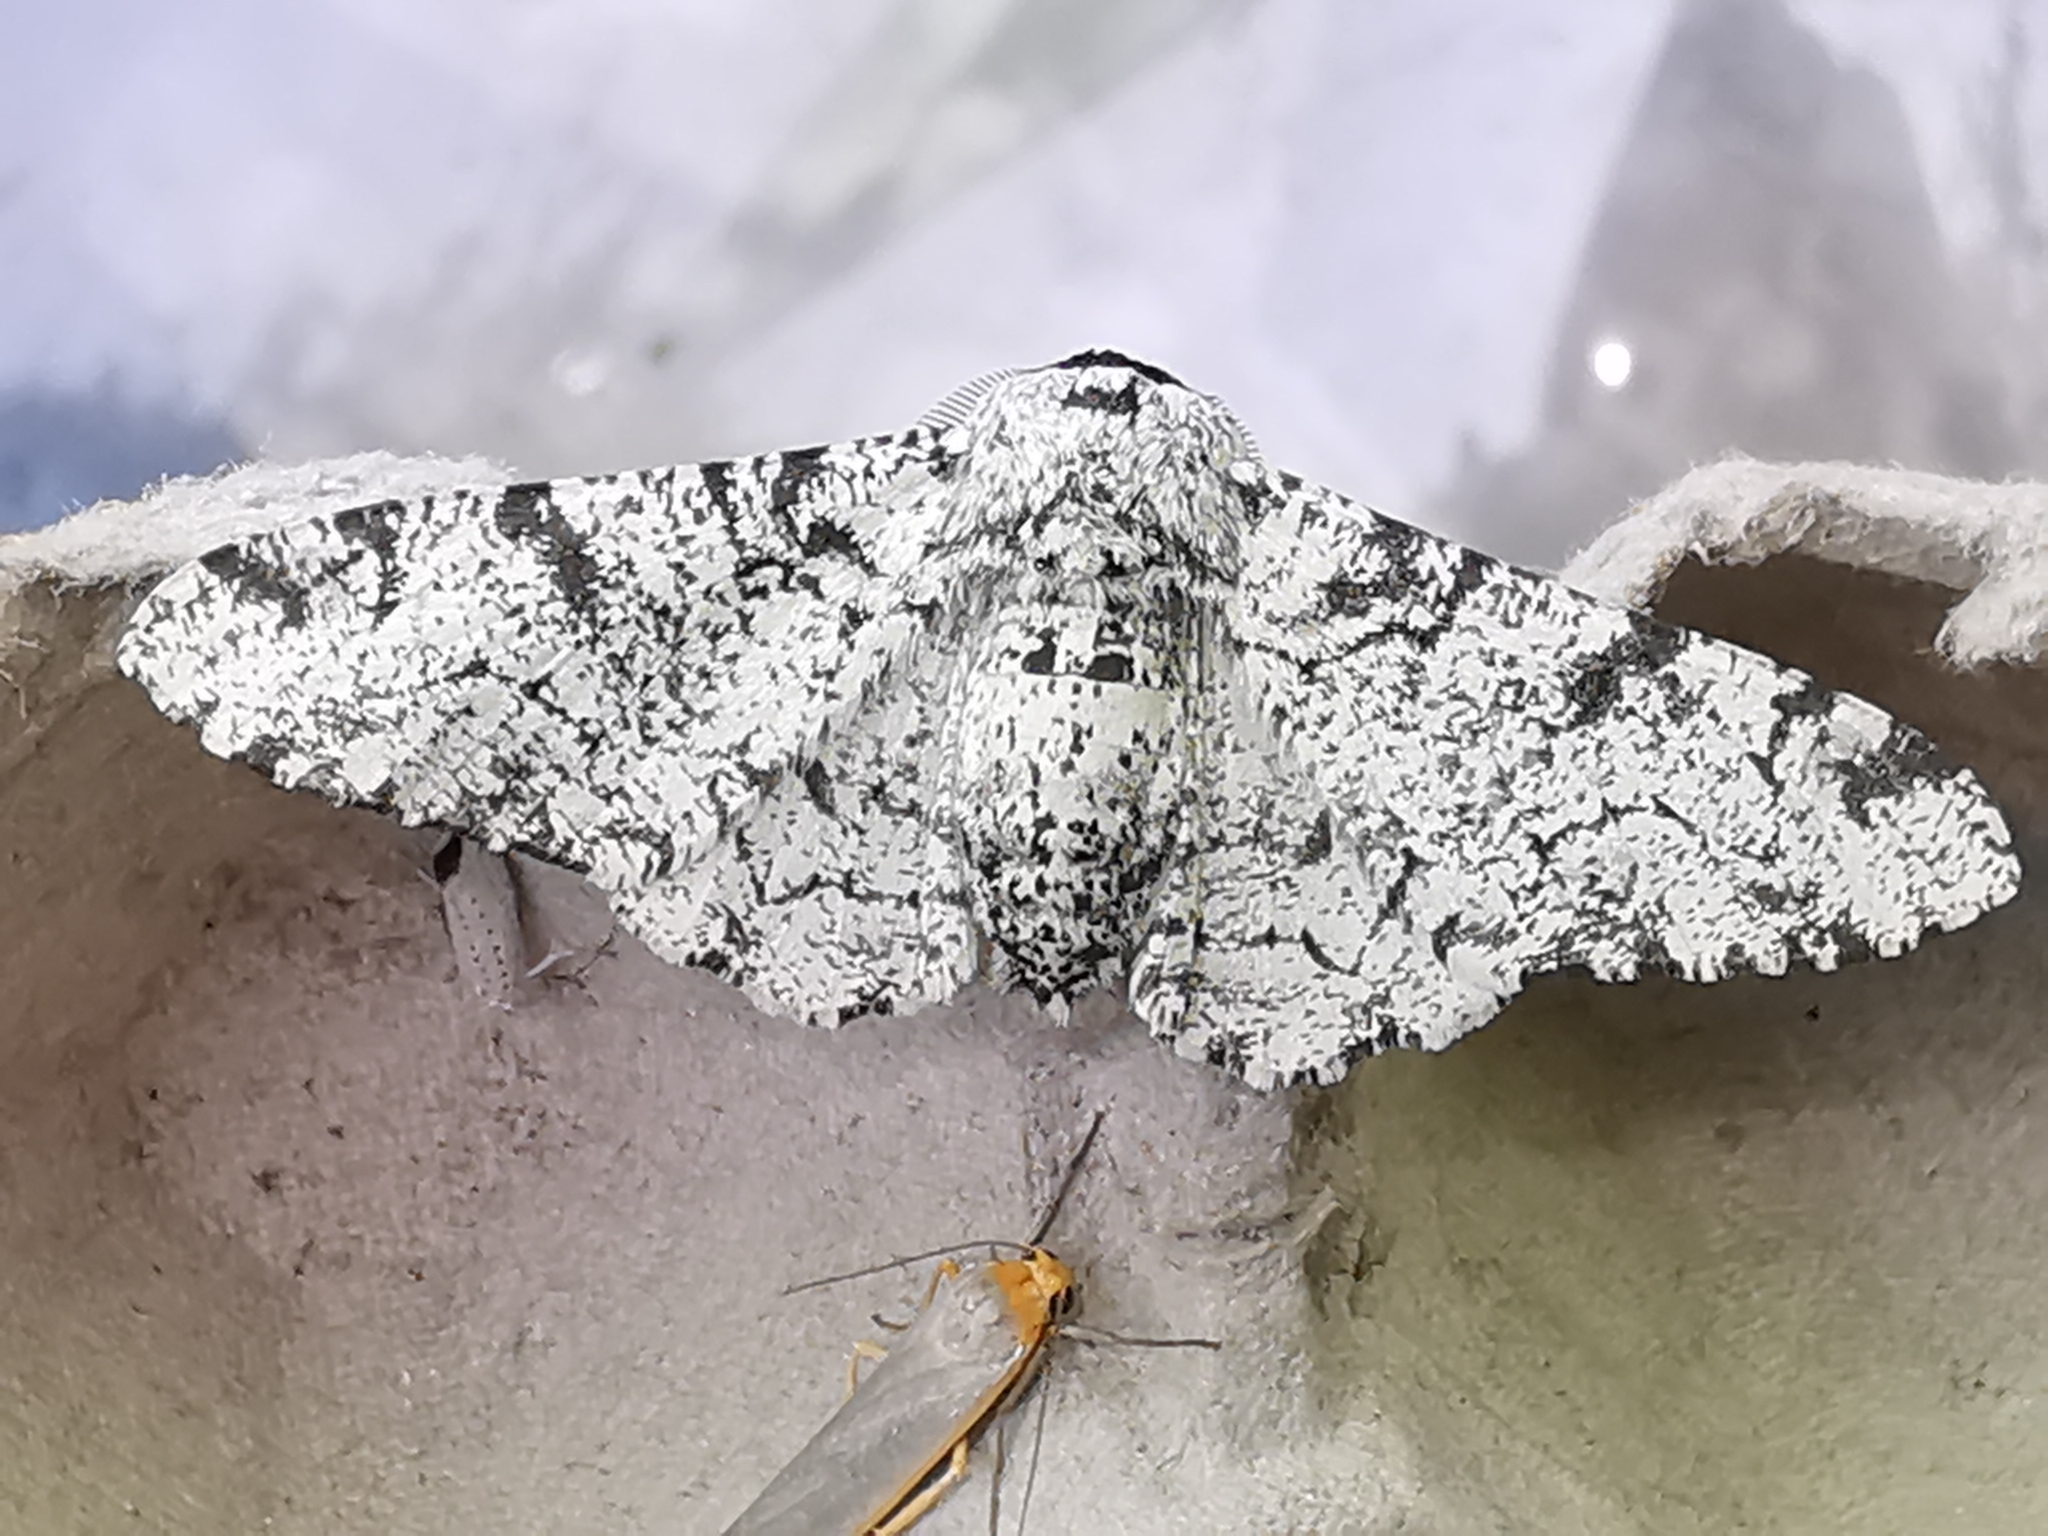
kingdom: Animalia
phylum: Arthropoda
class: Insecta
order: Lepidoptera
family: Geometridae
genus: Biston
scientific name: Biston betularia
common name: Peppered moth
